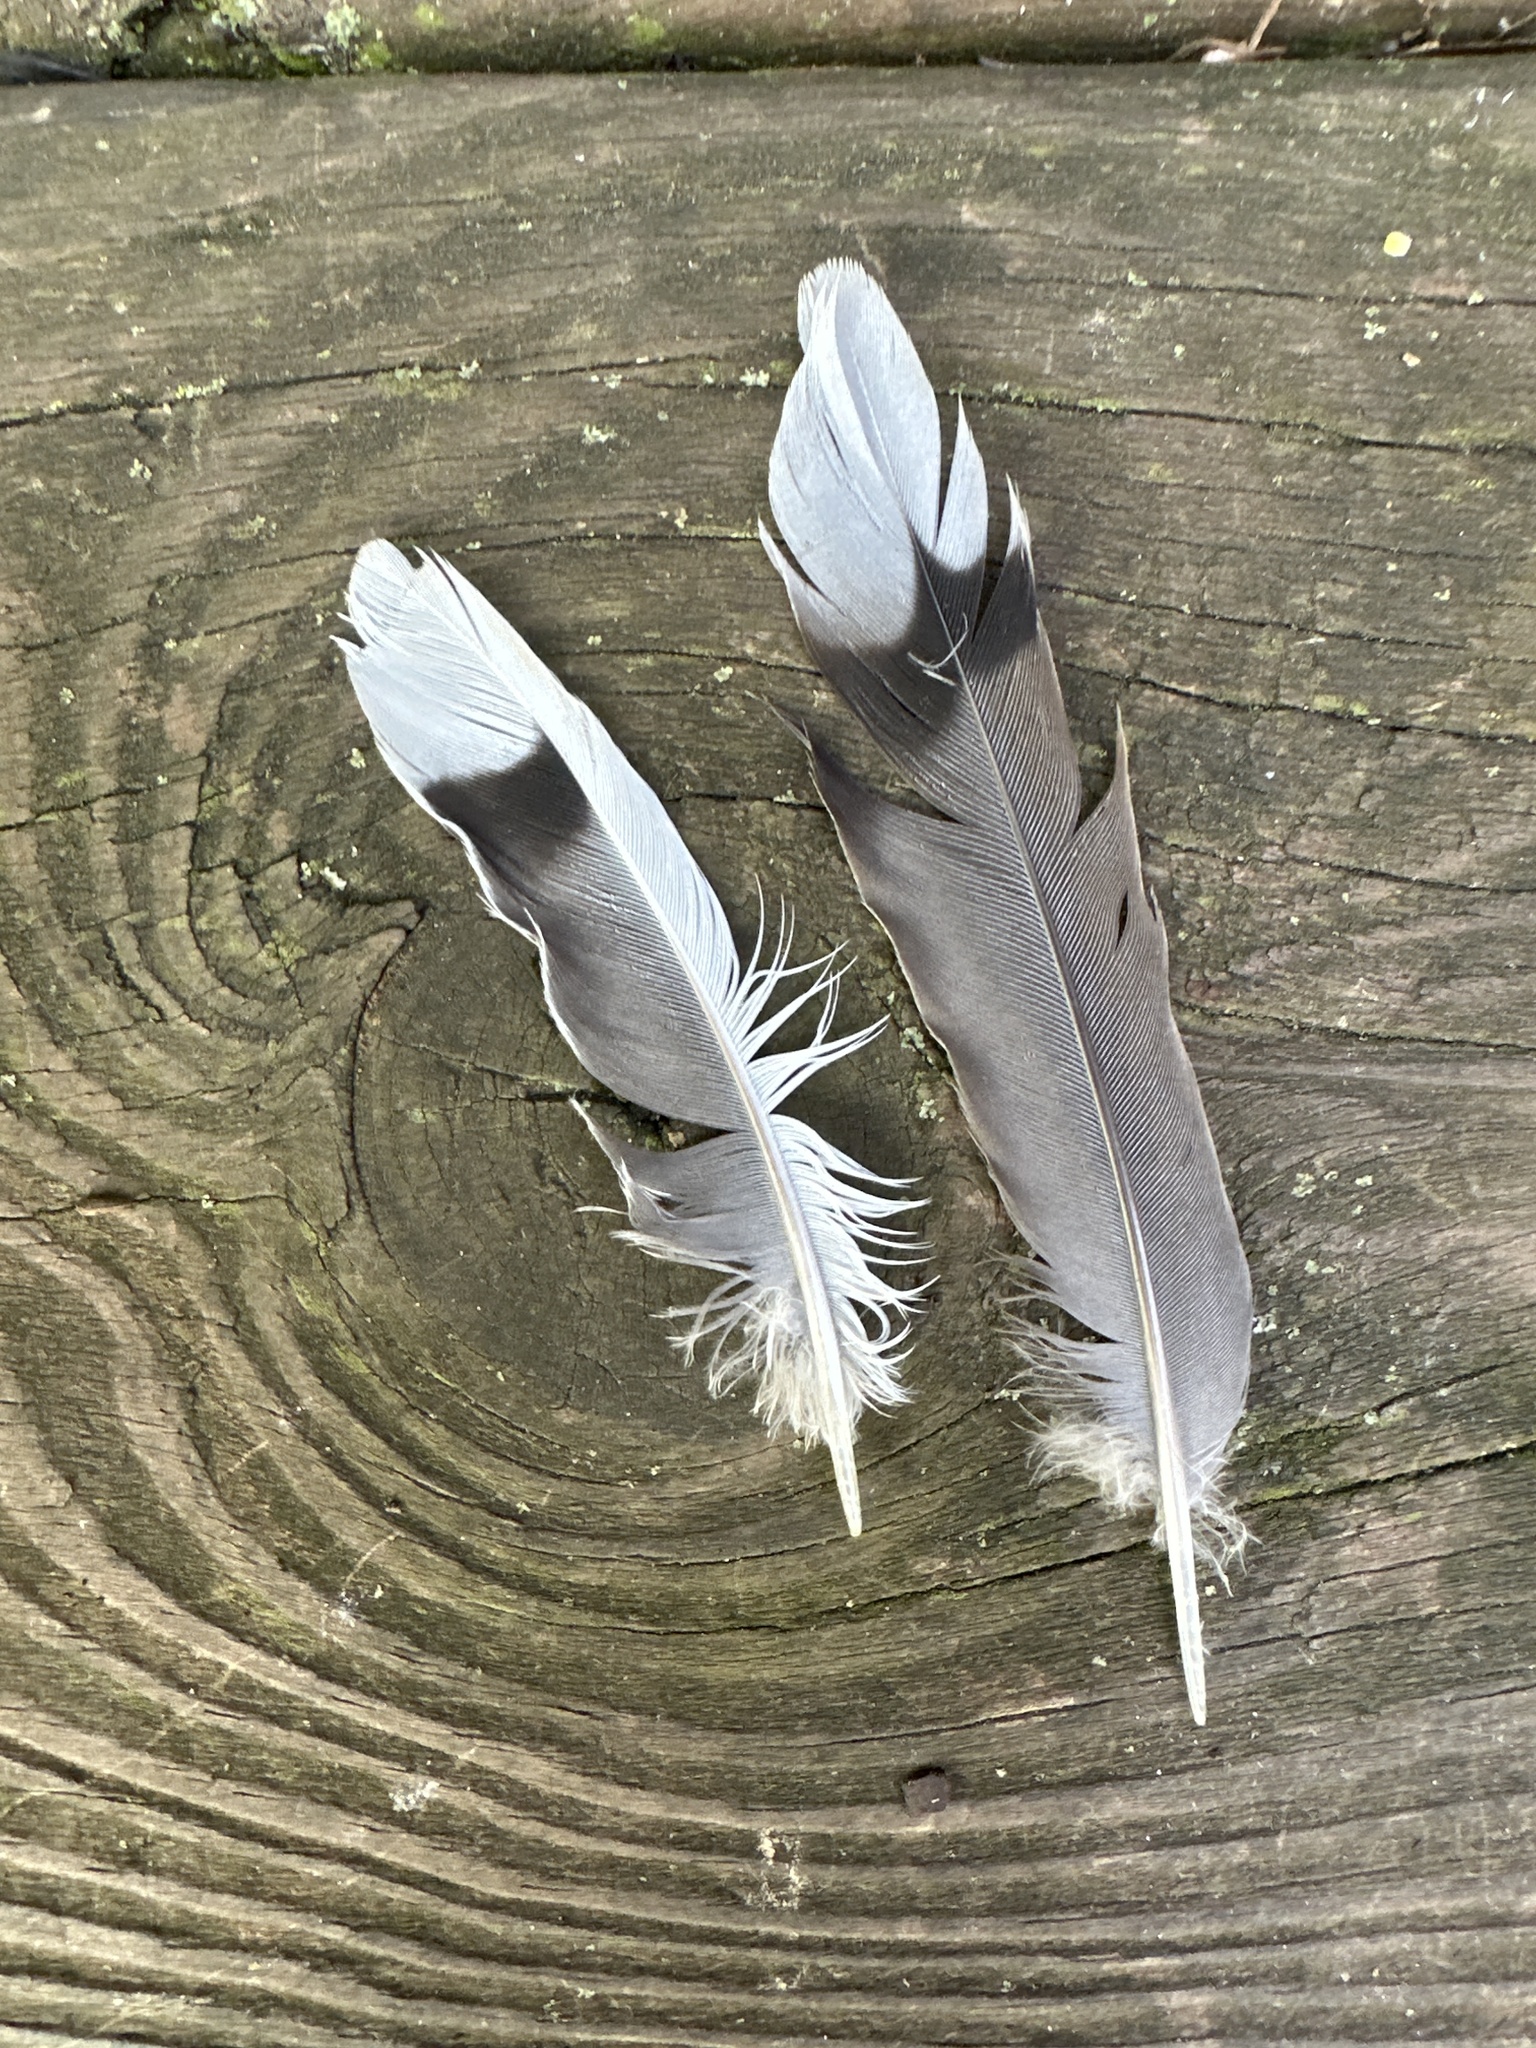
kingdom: Animalia
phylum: Chordata
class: Aves
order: Columbiformes
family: Columbidae
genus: Zenaida
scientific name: Zenaida macroura
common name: Mourning dove
